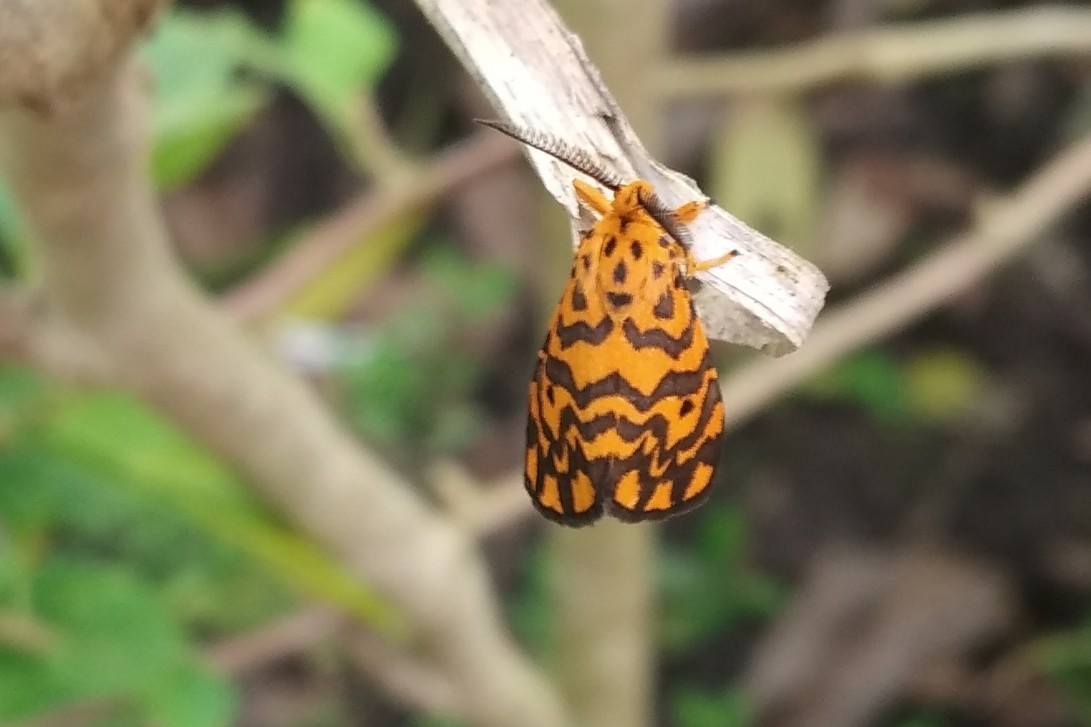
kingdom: Animalia
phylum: Arthropoda
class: Insecta
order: Lepidoptera
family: Erebidae
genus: Nepita
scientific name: Nepita conferta
